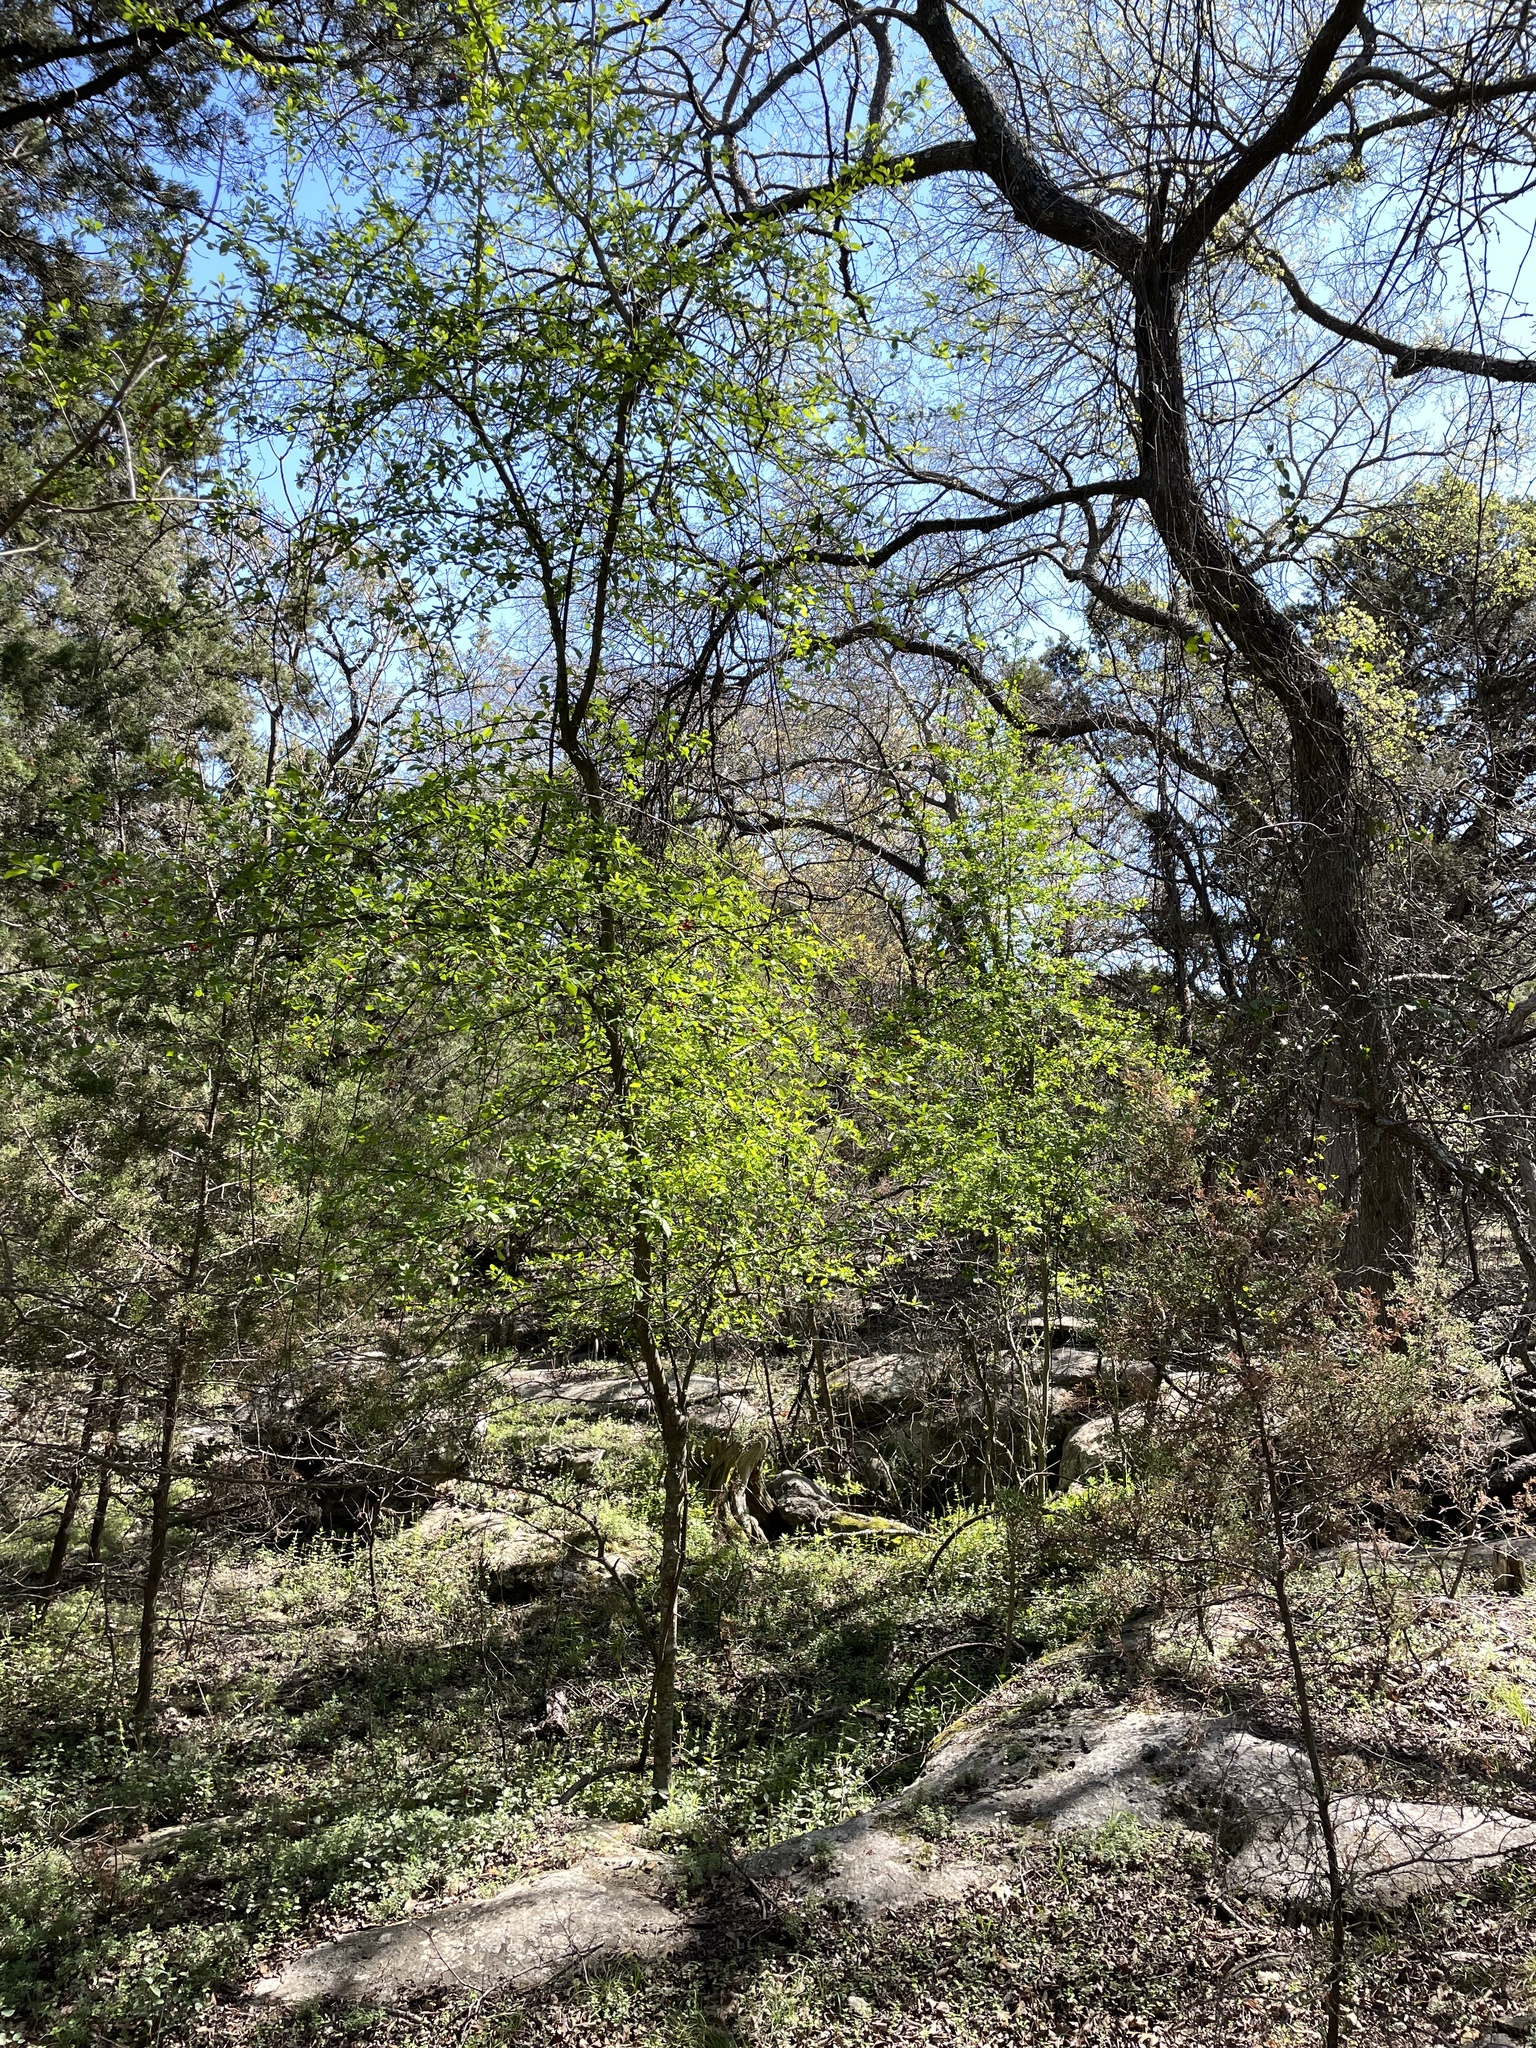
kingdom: Plantae
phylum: Tracheophyta
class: Magnoliopsida
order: Aquifoliales
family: Aquifoliaceae
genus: Ilex
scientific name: Ilex decidua
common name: Possum-haw
